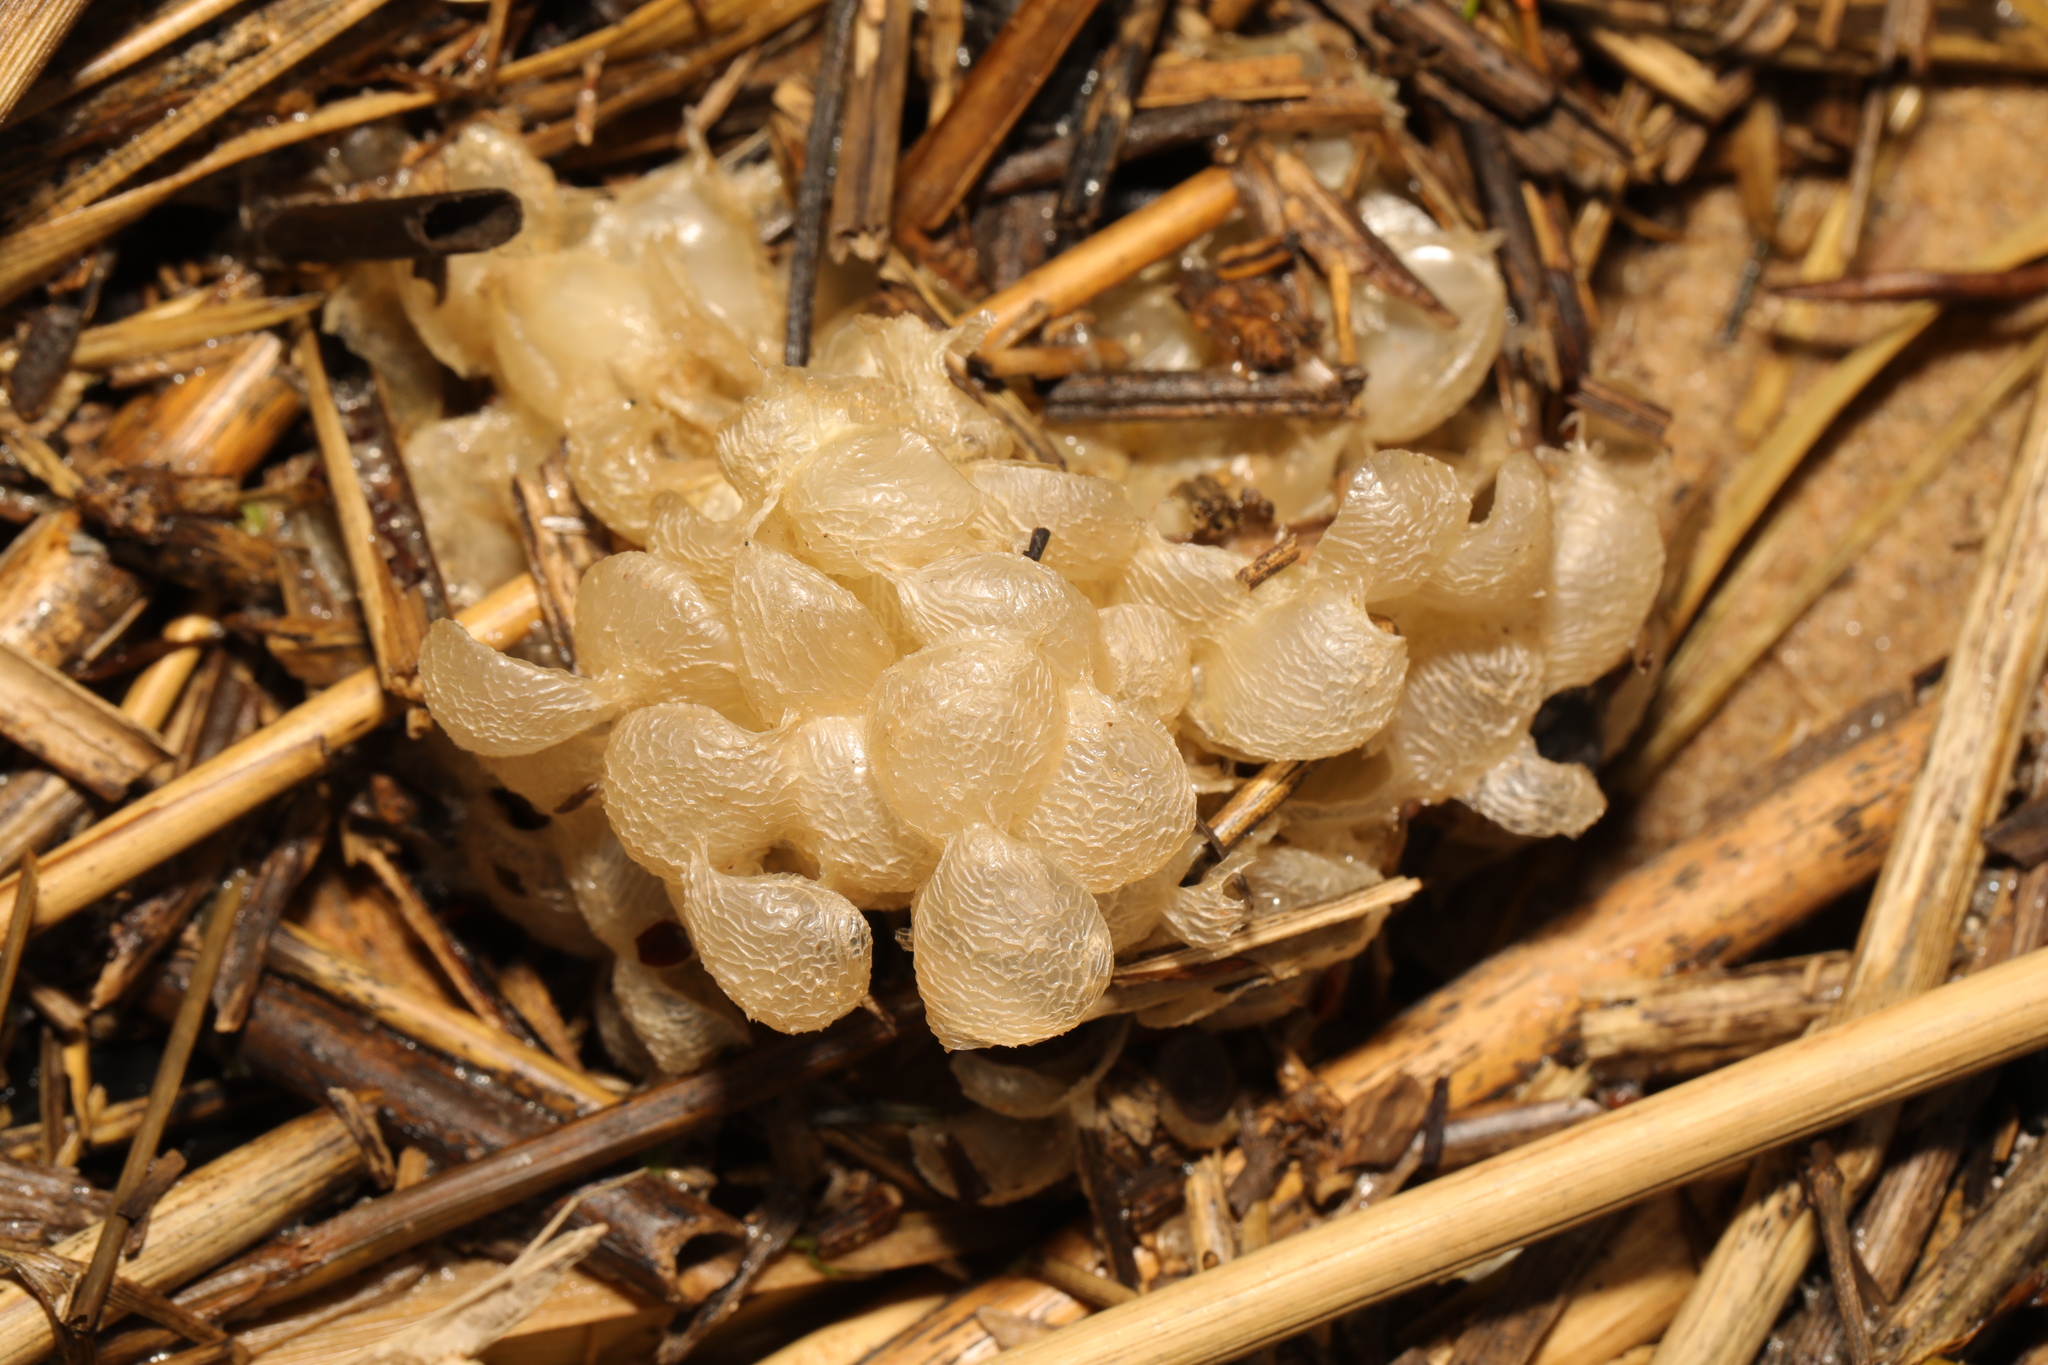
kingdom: Animalia
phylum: Mollusca
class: Gastropoda
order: Neogastropoda
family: Buccinidae
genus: Buccinum
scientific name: Buccinum undatum
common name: Common whelk
